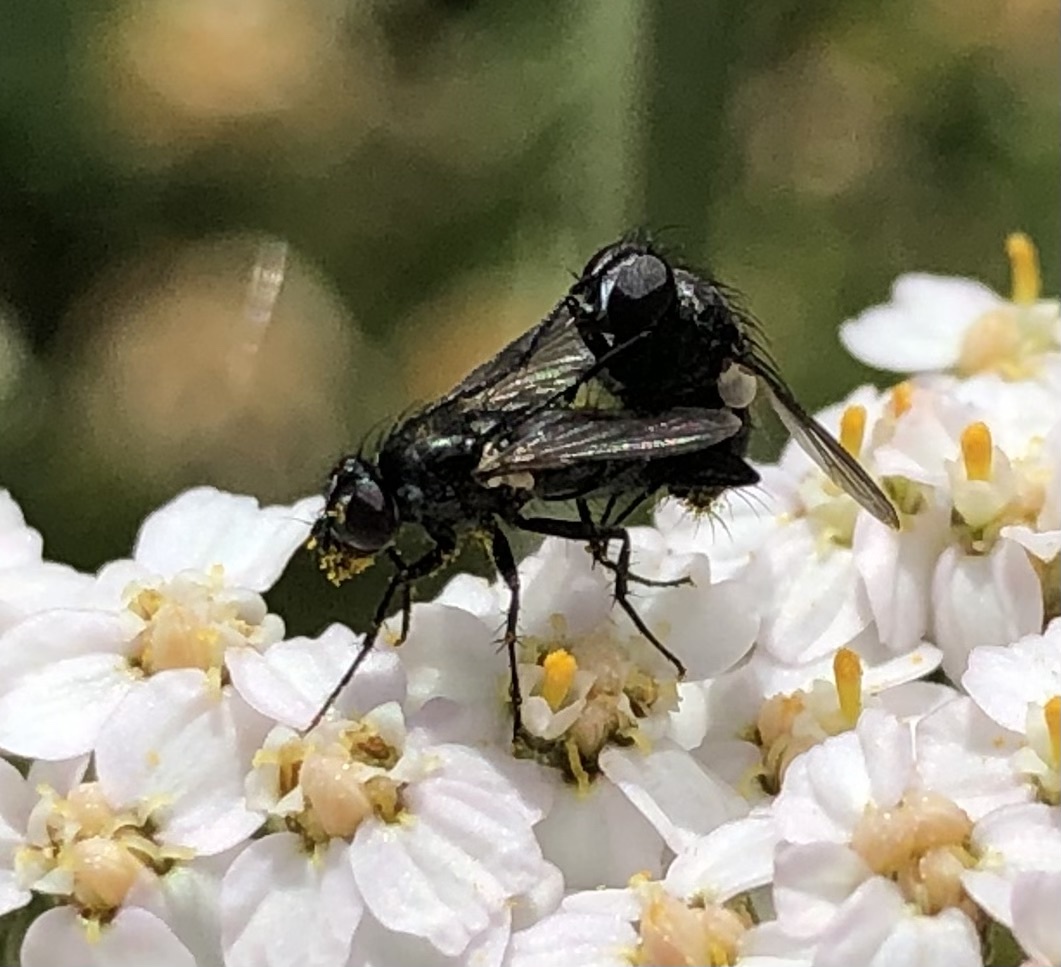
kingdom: Animalia
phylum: Arthropoda
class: Insecta
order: Diptera
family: Calliphoridae
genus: Rhinophora
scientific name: Rhinophora lepida
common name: Pouting woodlouse-fly
